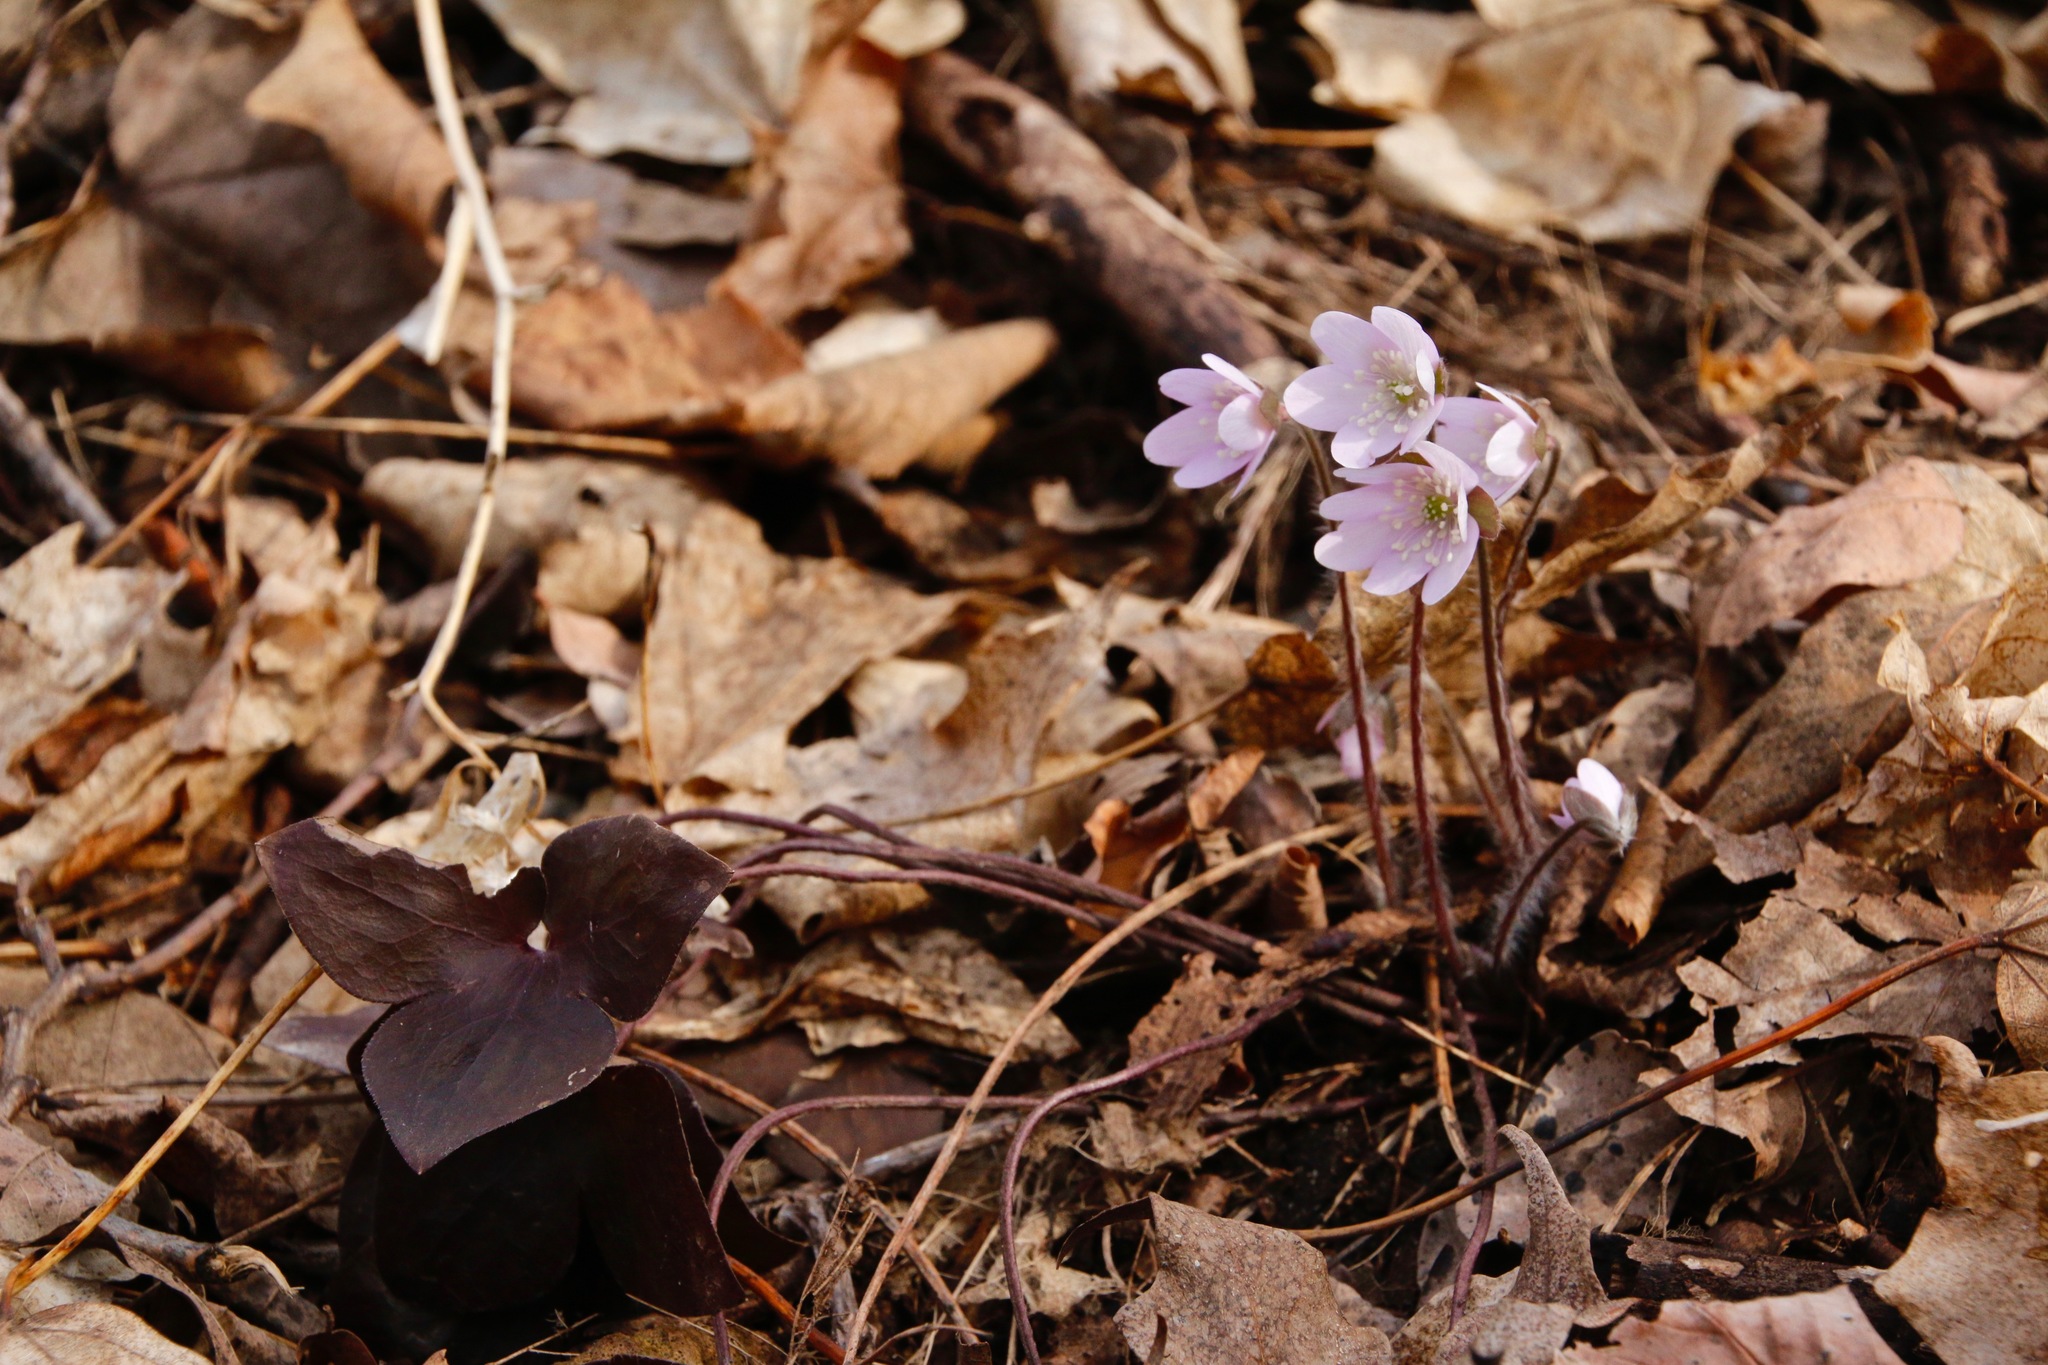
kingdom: Plantae
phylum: Tracheophyta
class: Magnoliopsida
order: Ranunculales
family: Ranunculaceae
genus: Hepatica
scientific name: Hepatica acutiloba
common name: Sharp-lobed hepatica
